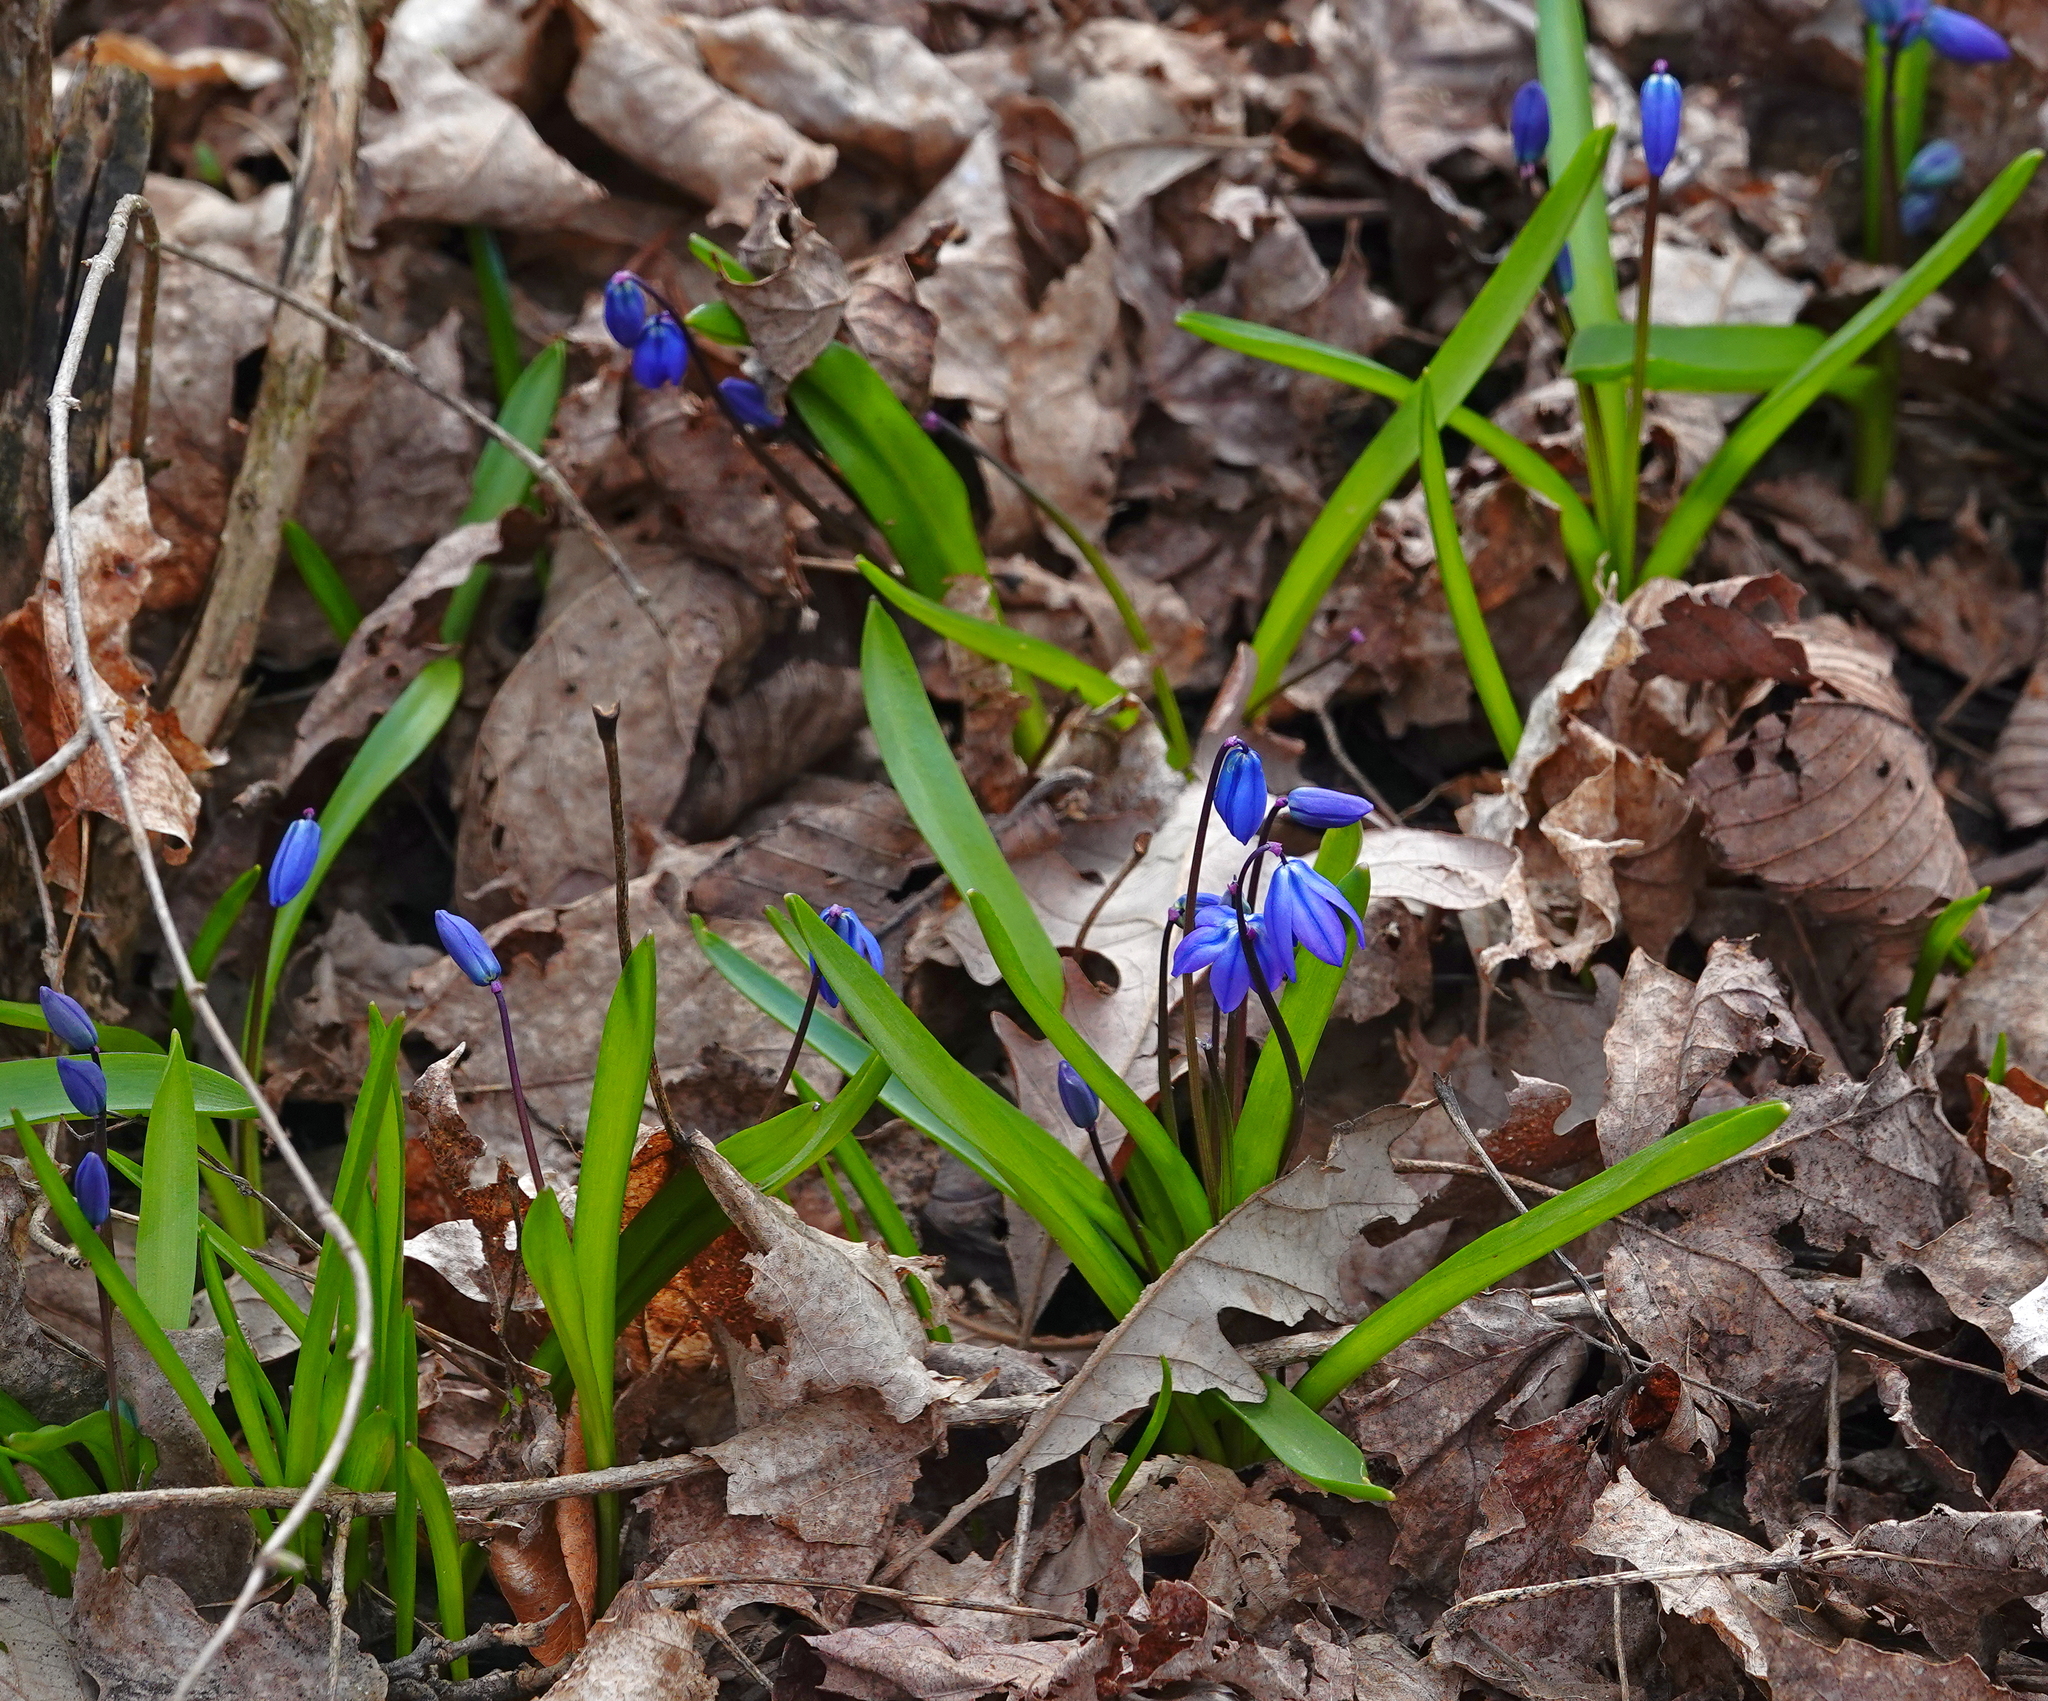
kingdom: Plantae
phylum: Tracheophyta
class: Liliopsida
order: Asparagales
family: Asparagaceae
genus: Scilla
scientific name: Scilla siberica
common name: Siberian squill
